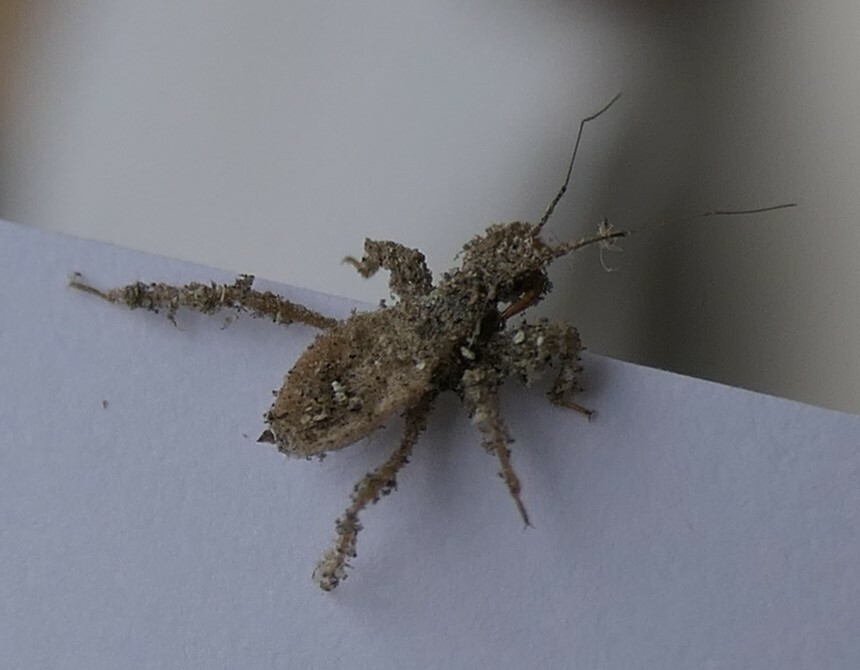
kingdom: Animalia
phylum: Arthropoda
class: Insecta
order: Hemiptera
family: Reduviidae
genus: Reduvius
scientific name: Reduvius personatus
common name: Masked hunter
